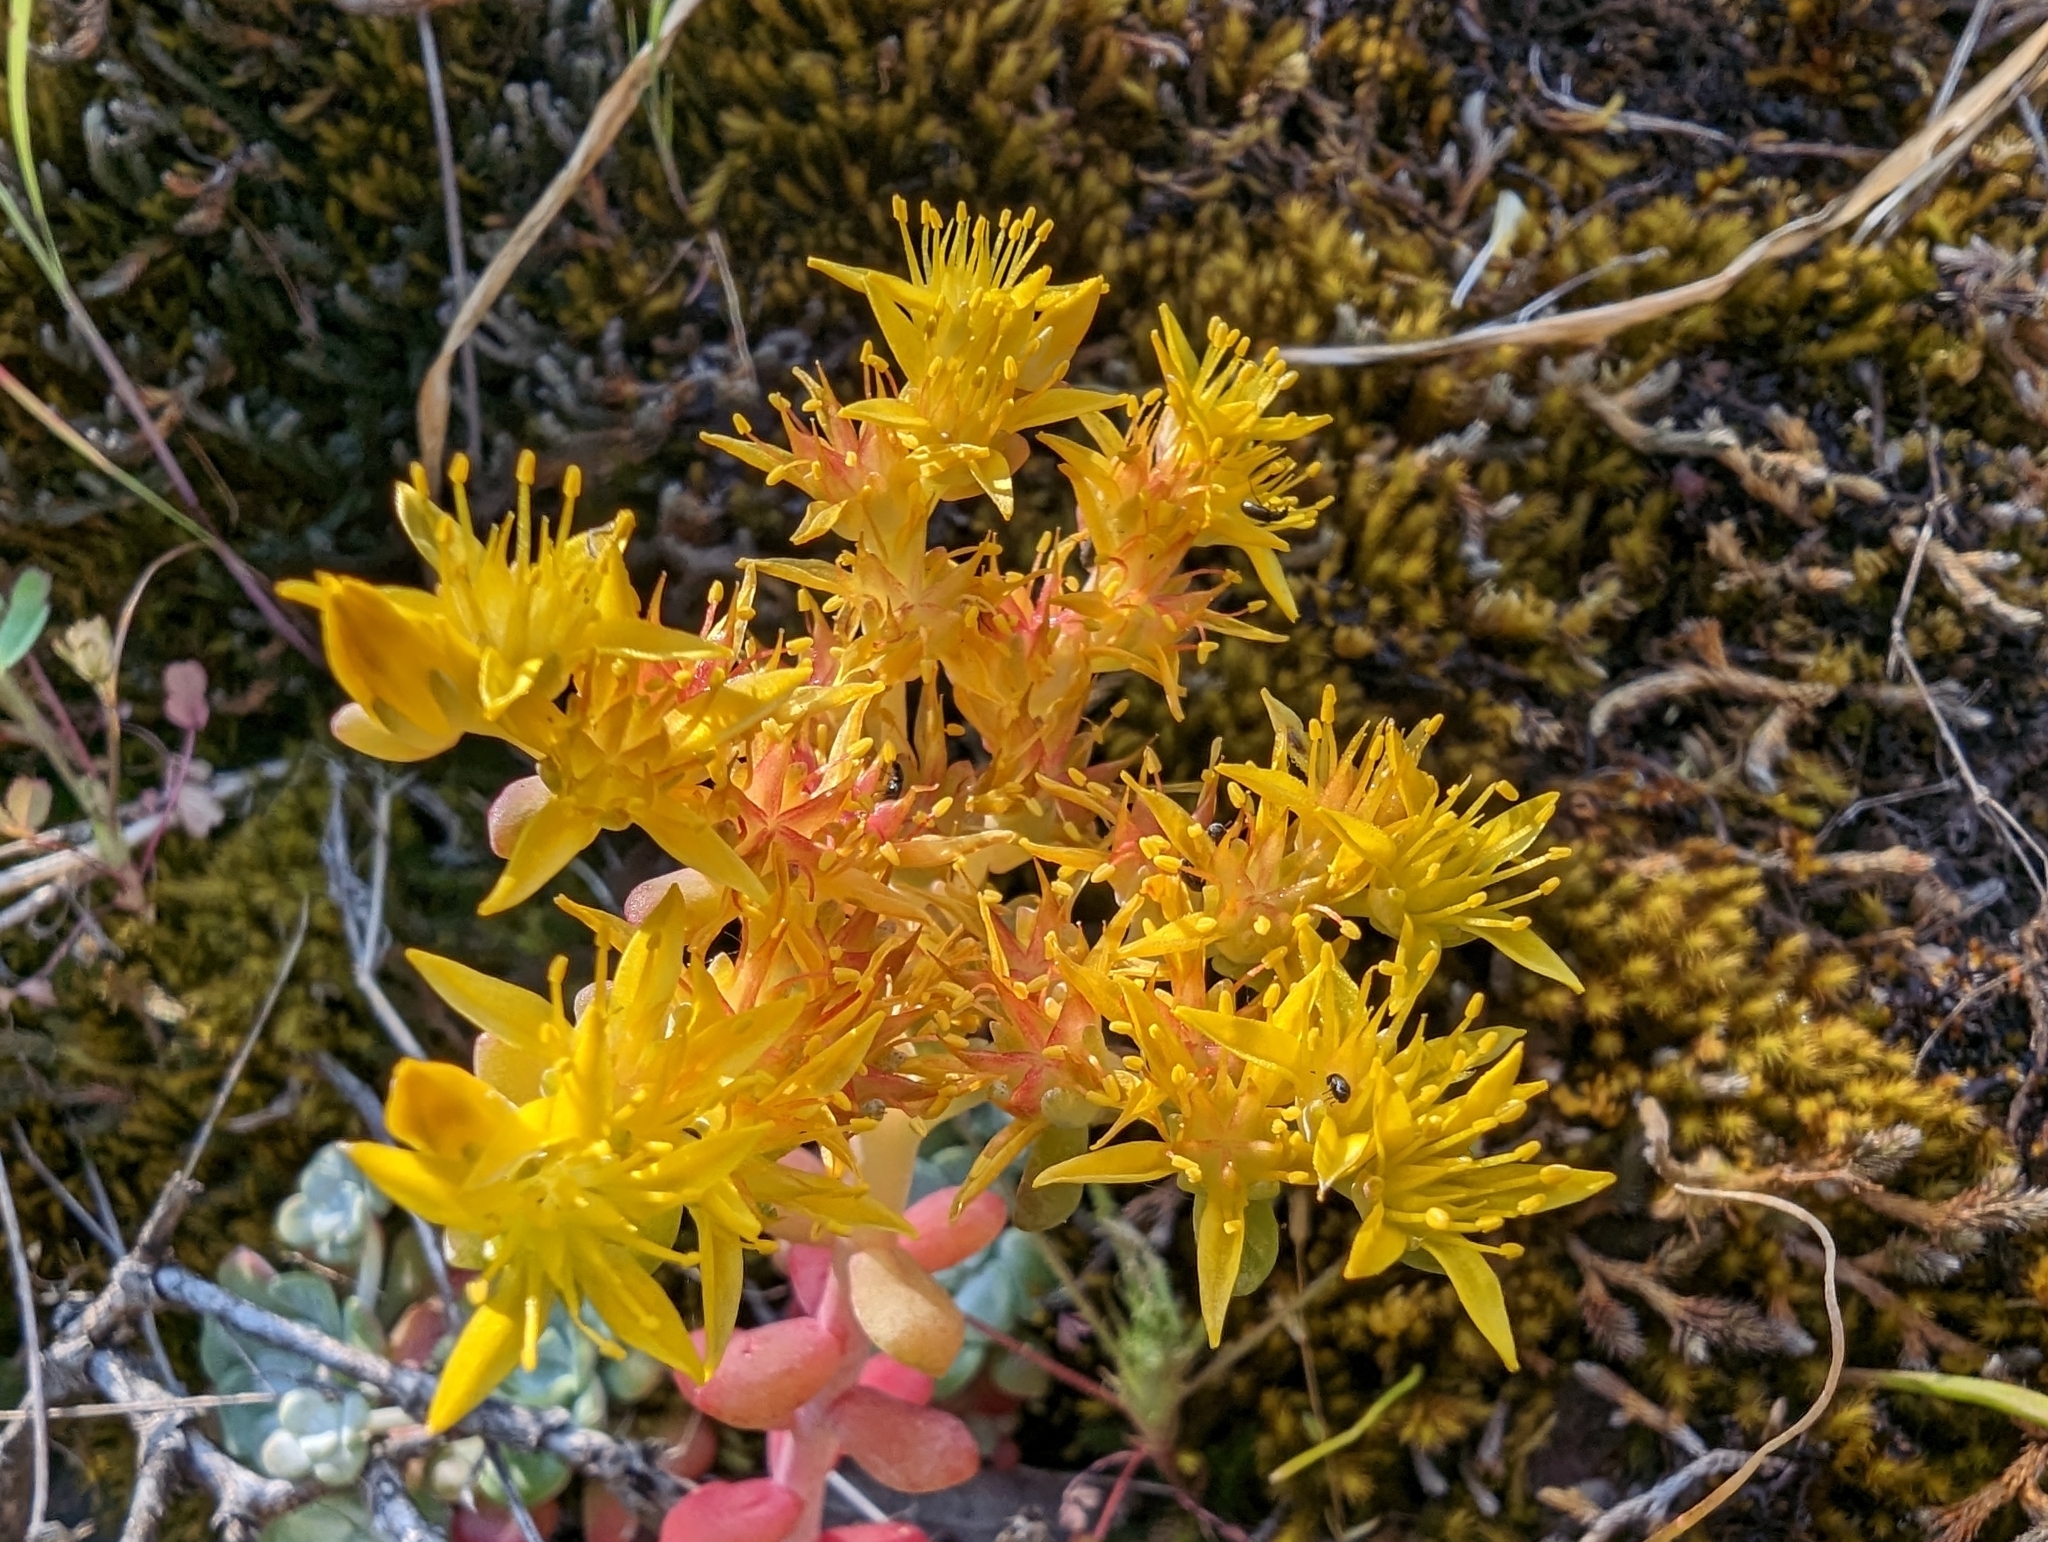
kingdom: Plantae
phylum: Tracheophyta
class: Magnoliopsida
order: Saxifragales
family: Crassulaceae
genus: Sedum
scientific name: Sedum spathulifolium
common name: Colorado stonecrop
